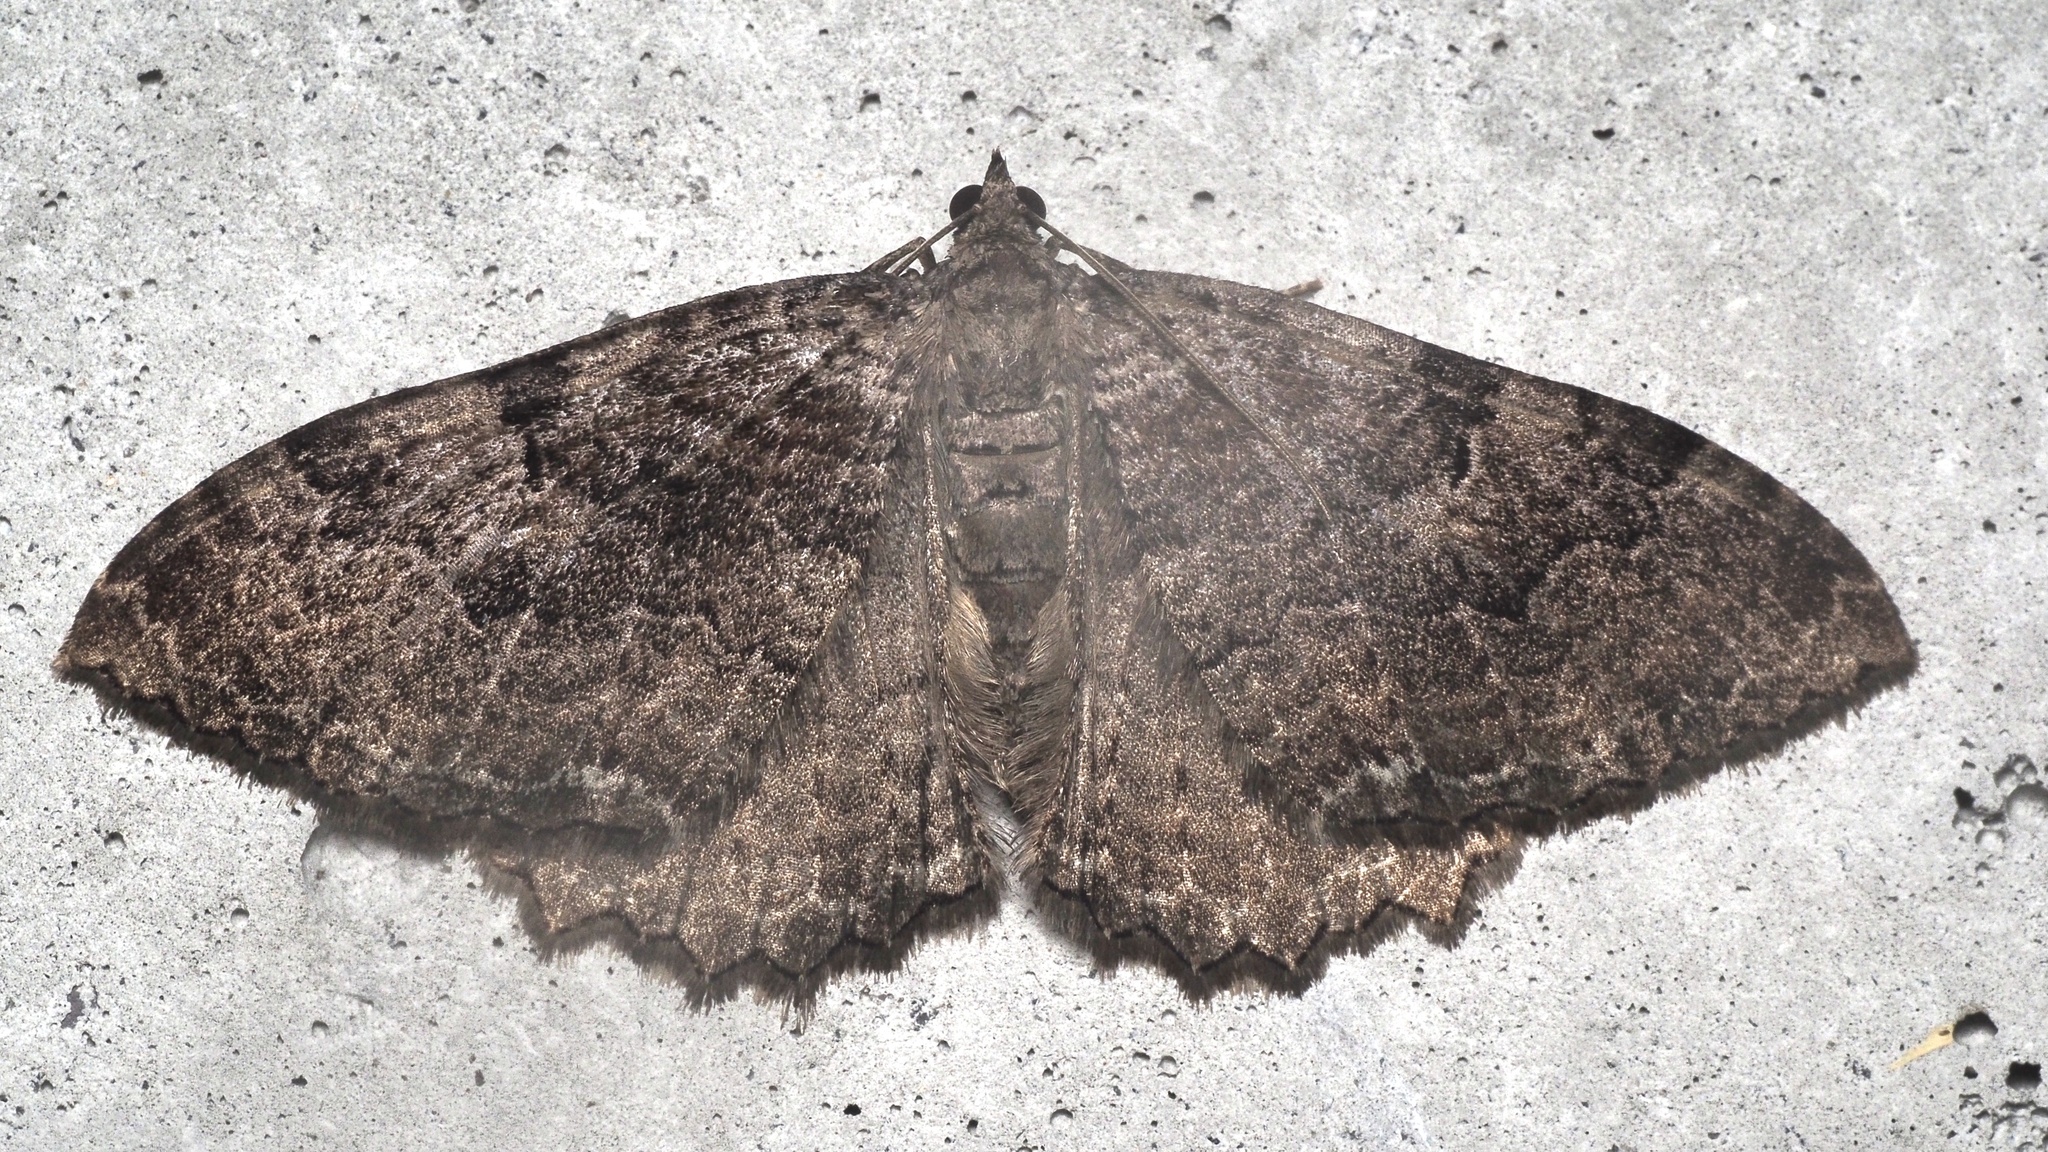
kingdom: Animalia
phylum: Arthropoda
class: Insecta
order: Lepidoptera
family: Geometridae
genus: Rheumaptera
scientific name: Rheumaptera Hydria cervinalis
